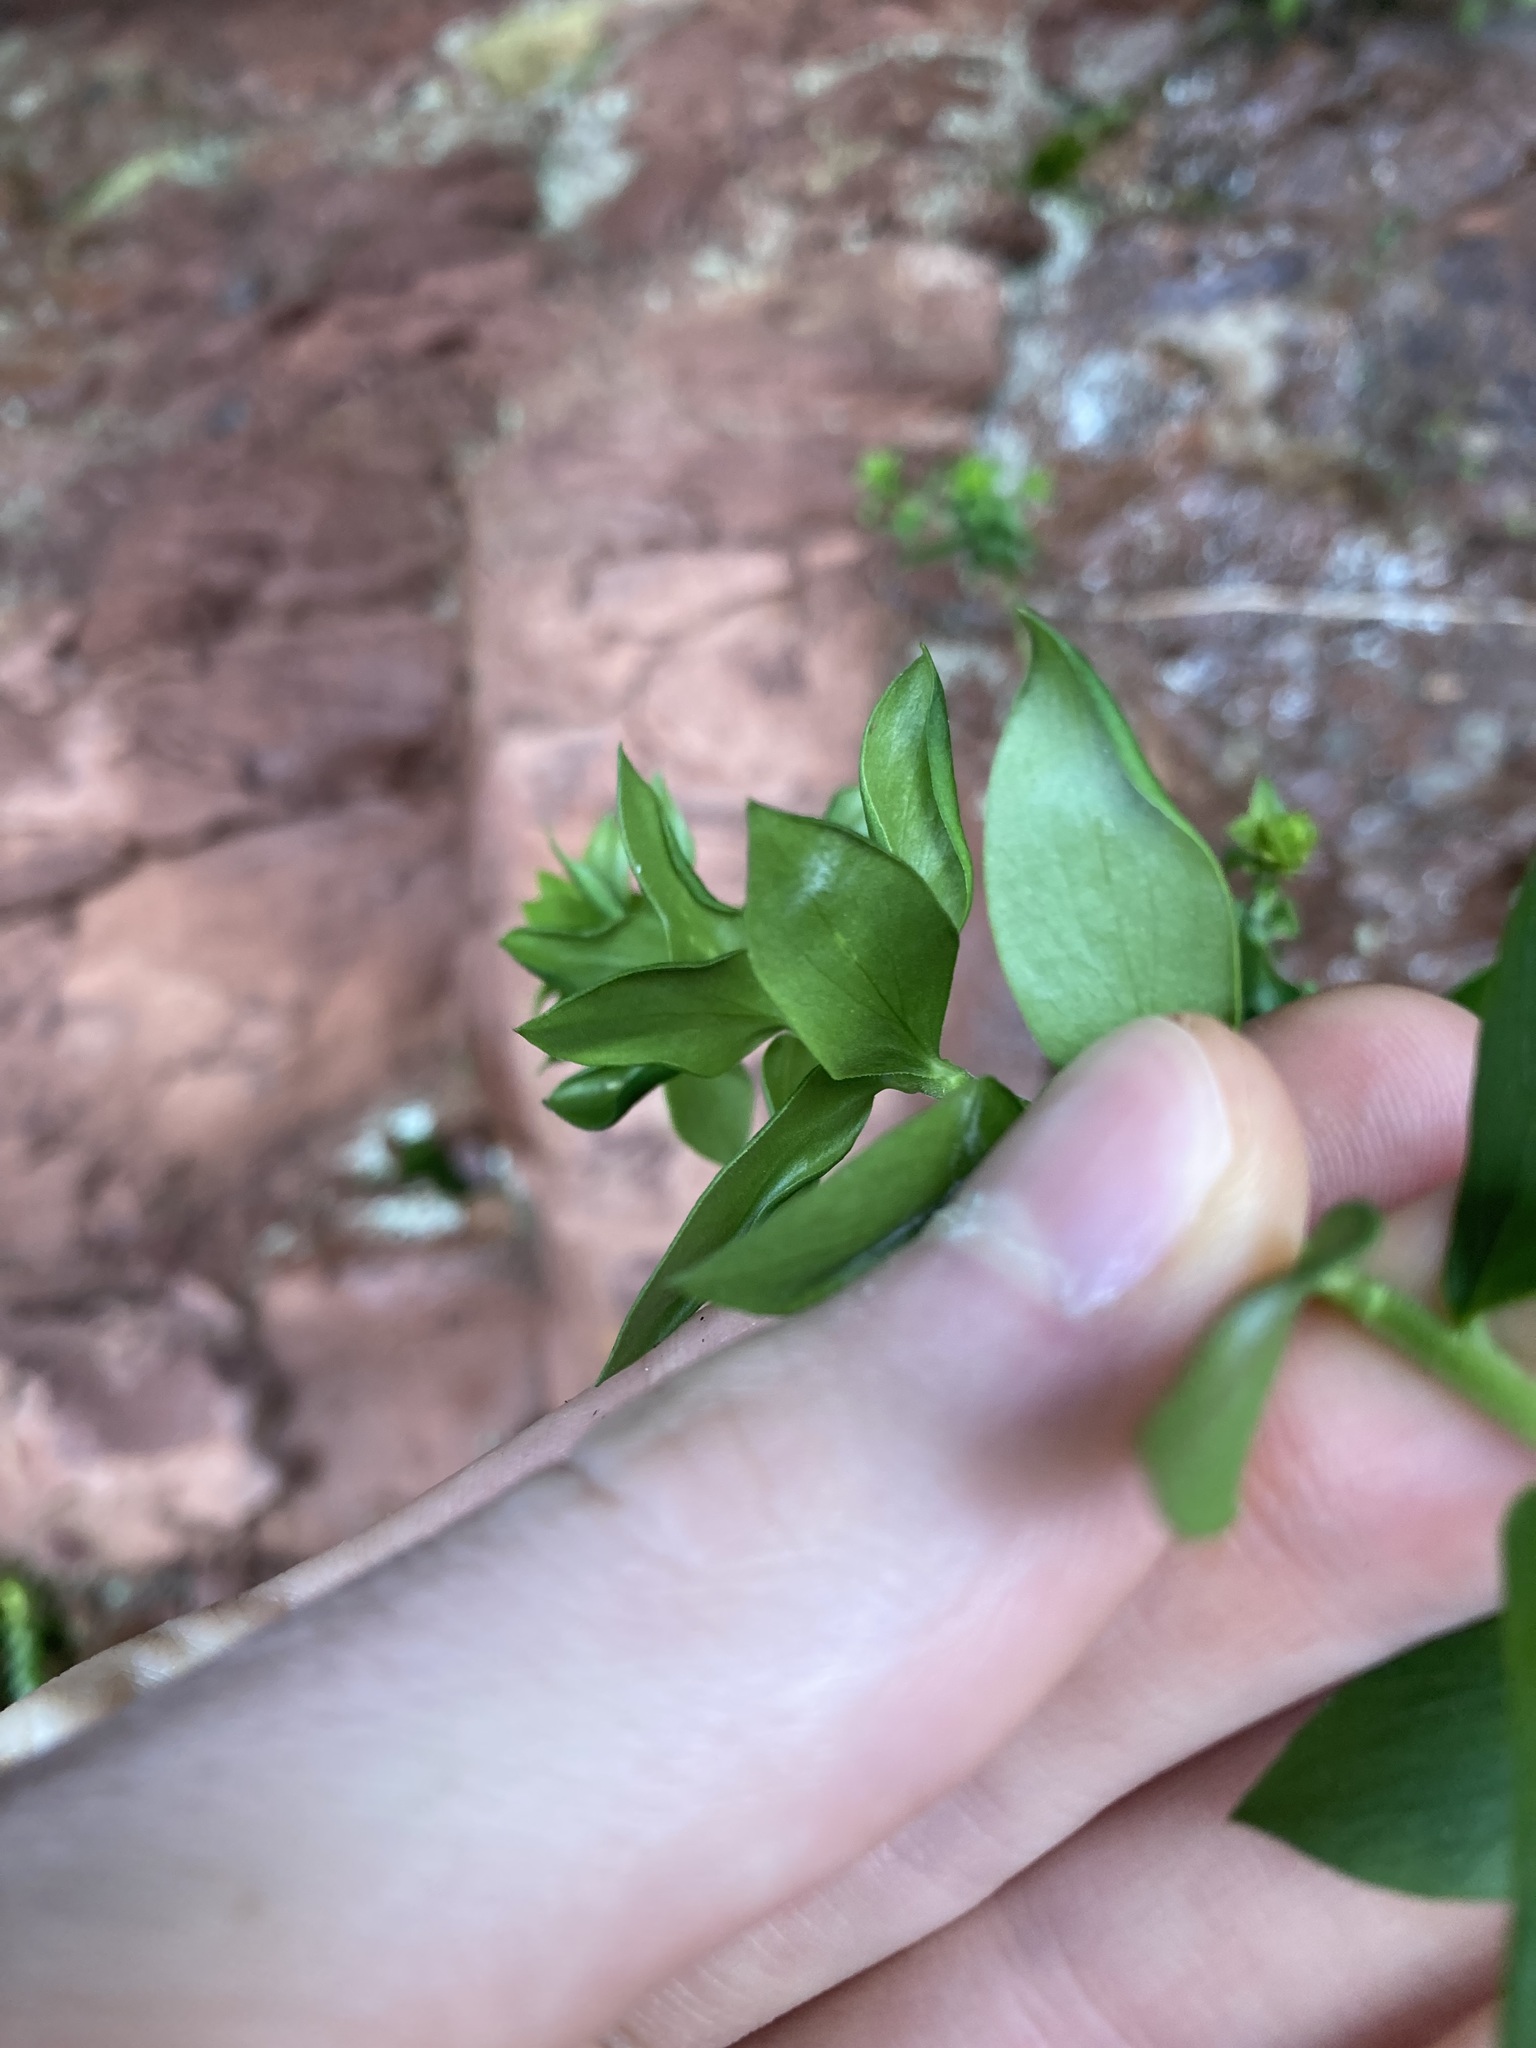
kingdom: Plantae
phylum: Tracheophyta
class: Magnoliopsida
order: Apiales
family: Apiaceae
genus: Platysace
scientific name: Platysace lanceolata
